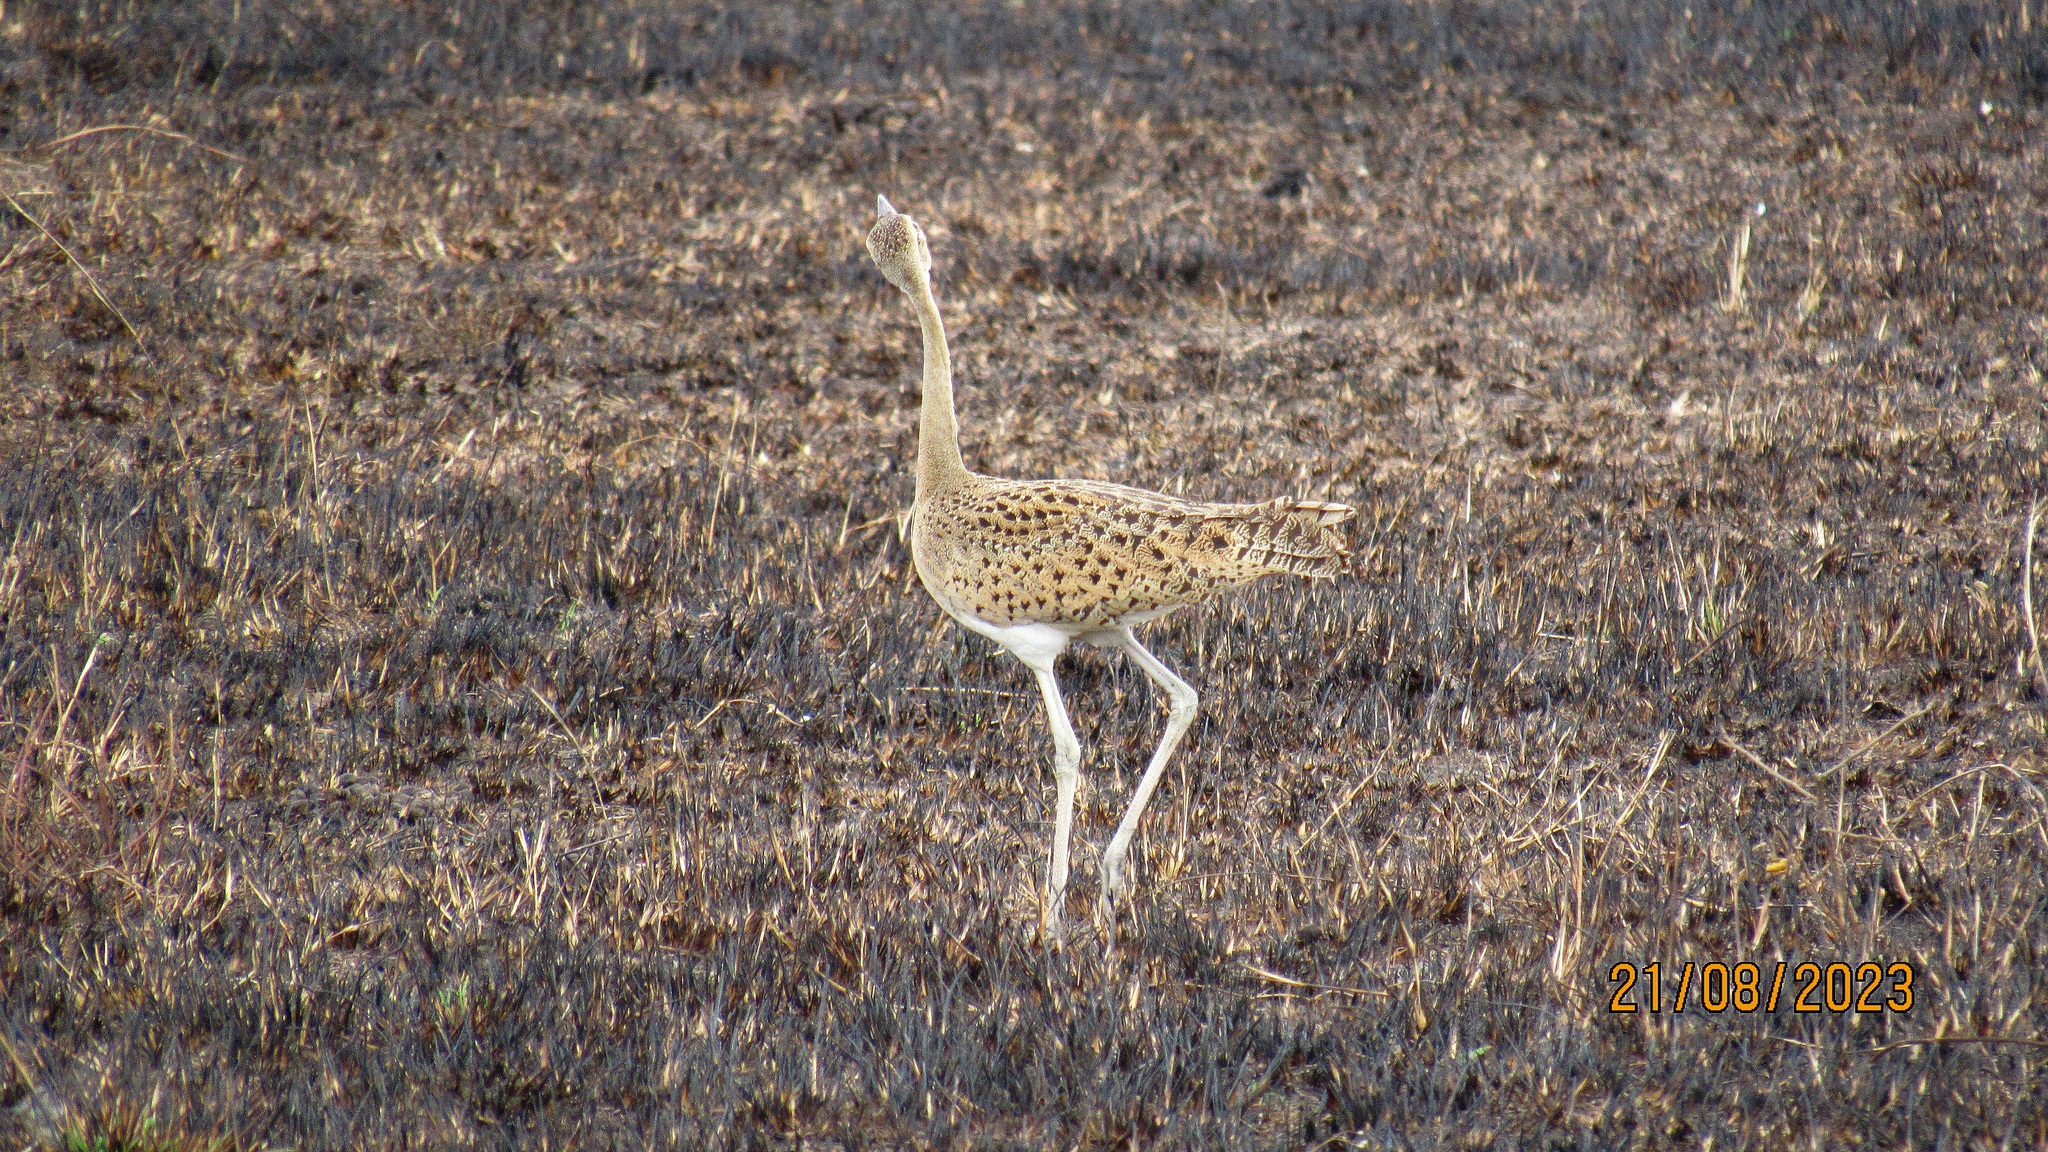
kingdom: Animalia
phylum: Chordata
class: Aves
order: Otidiformes
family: Otididae
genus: Lissotis
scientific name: Lissotis melanogaster
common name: Black-bellied bustard
